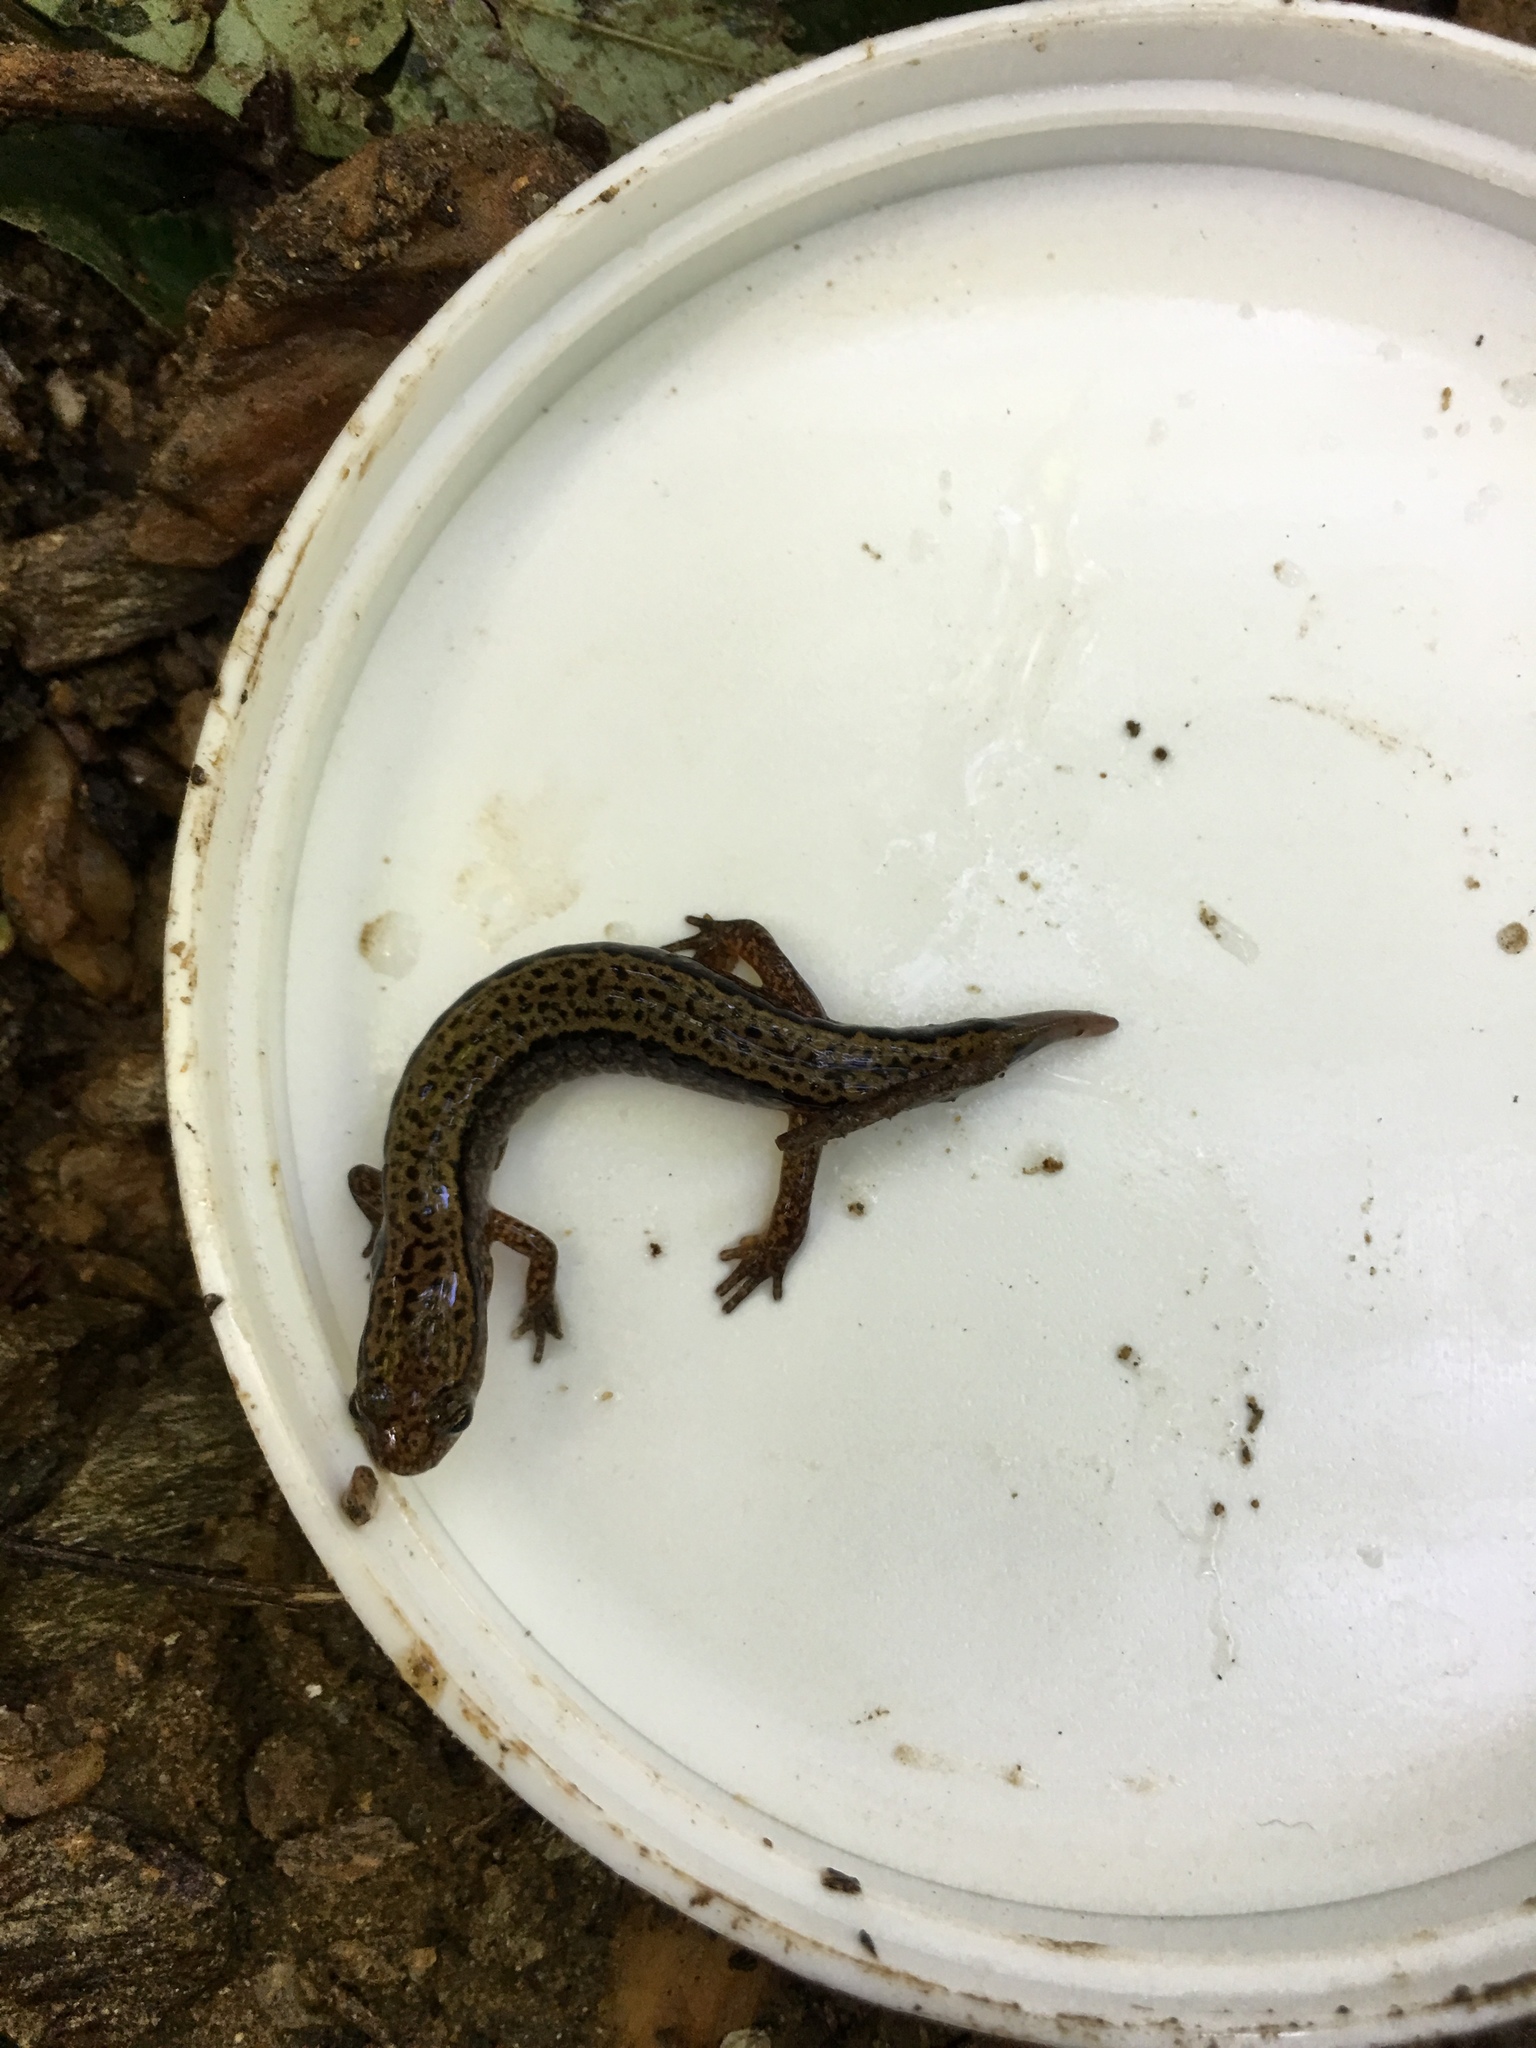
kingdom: Animalia
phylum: Chordata
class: Amphibia
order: Caudata
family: Plethodontidae
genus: Eurycea
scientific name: Eurycea bislineata
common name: Northern two-lined salamander
